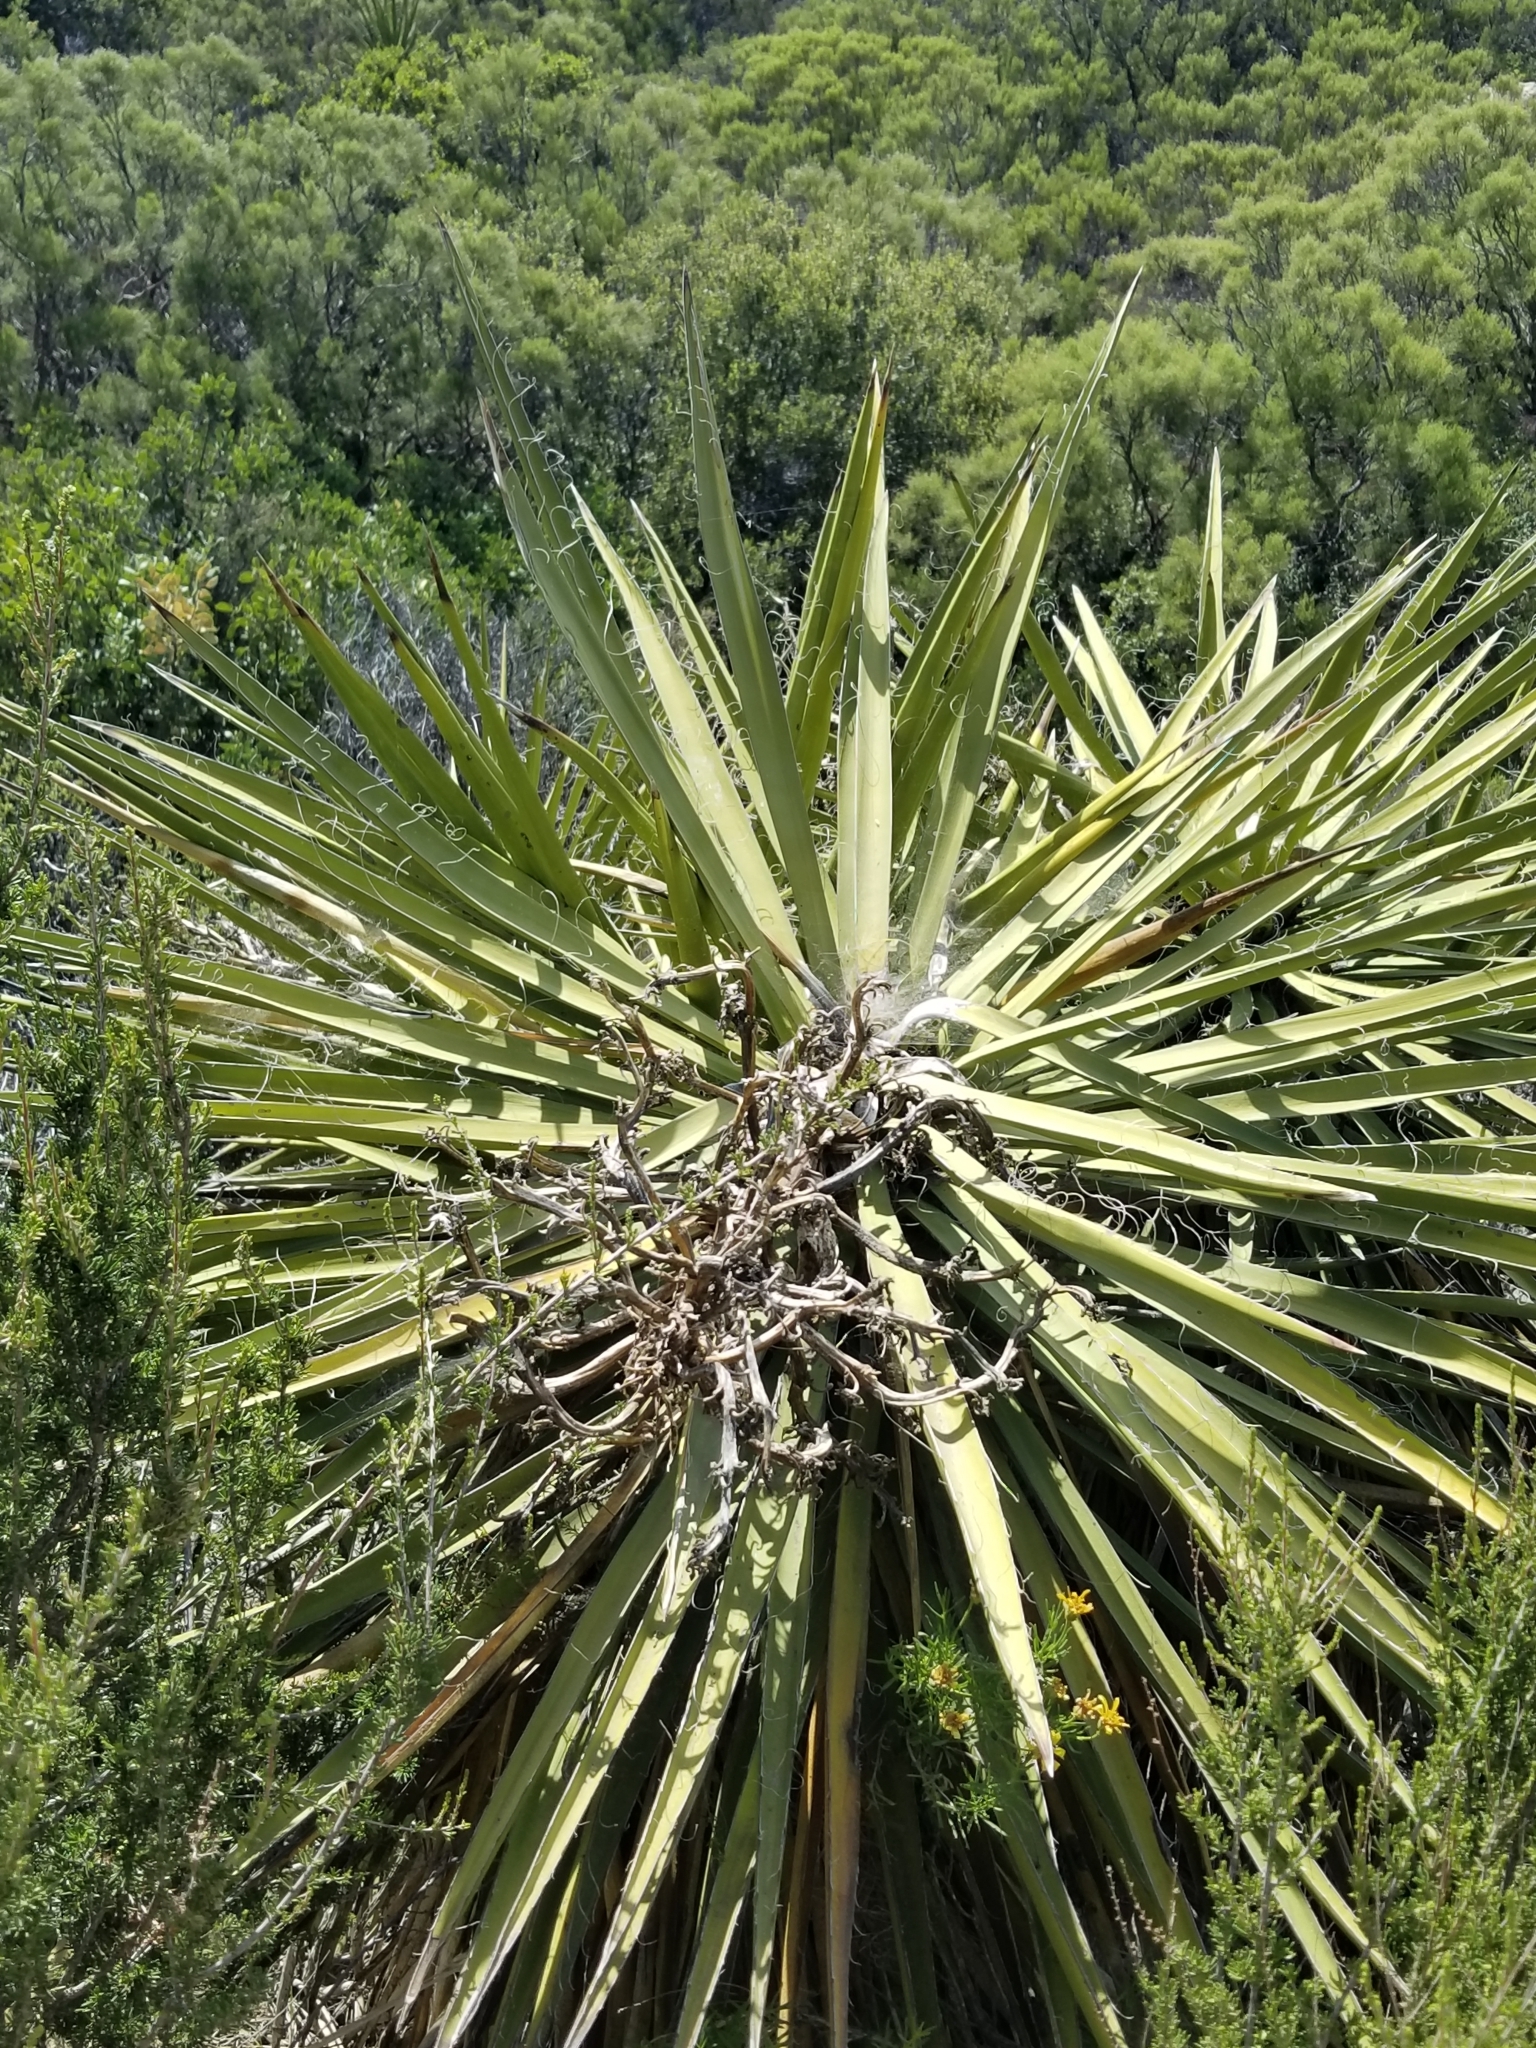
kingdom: Plantae
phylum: Tracheophyta
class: Liliopsida
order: Asparagales
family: Asparagaceae
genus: Yucca
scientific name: Yucca schidigera
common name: Mojave yucca
